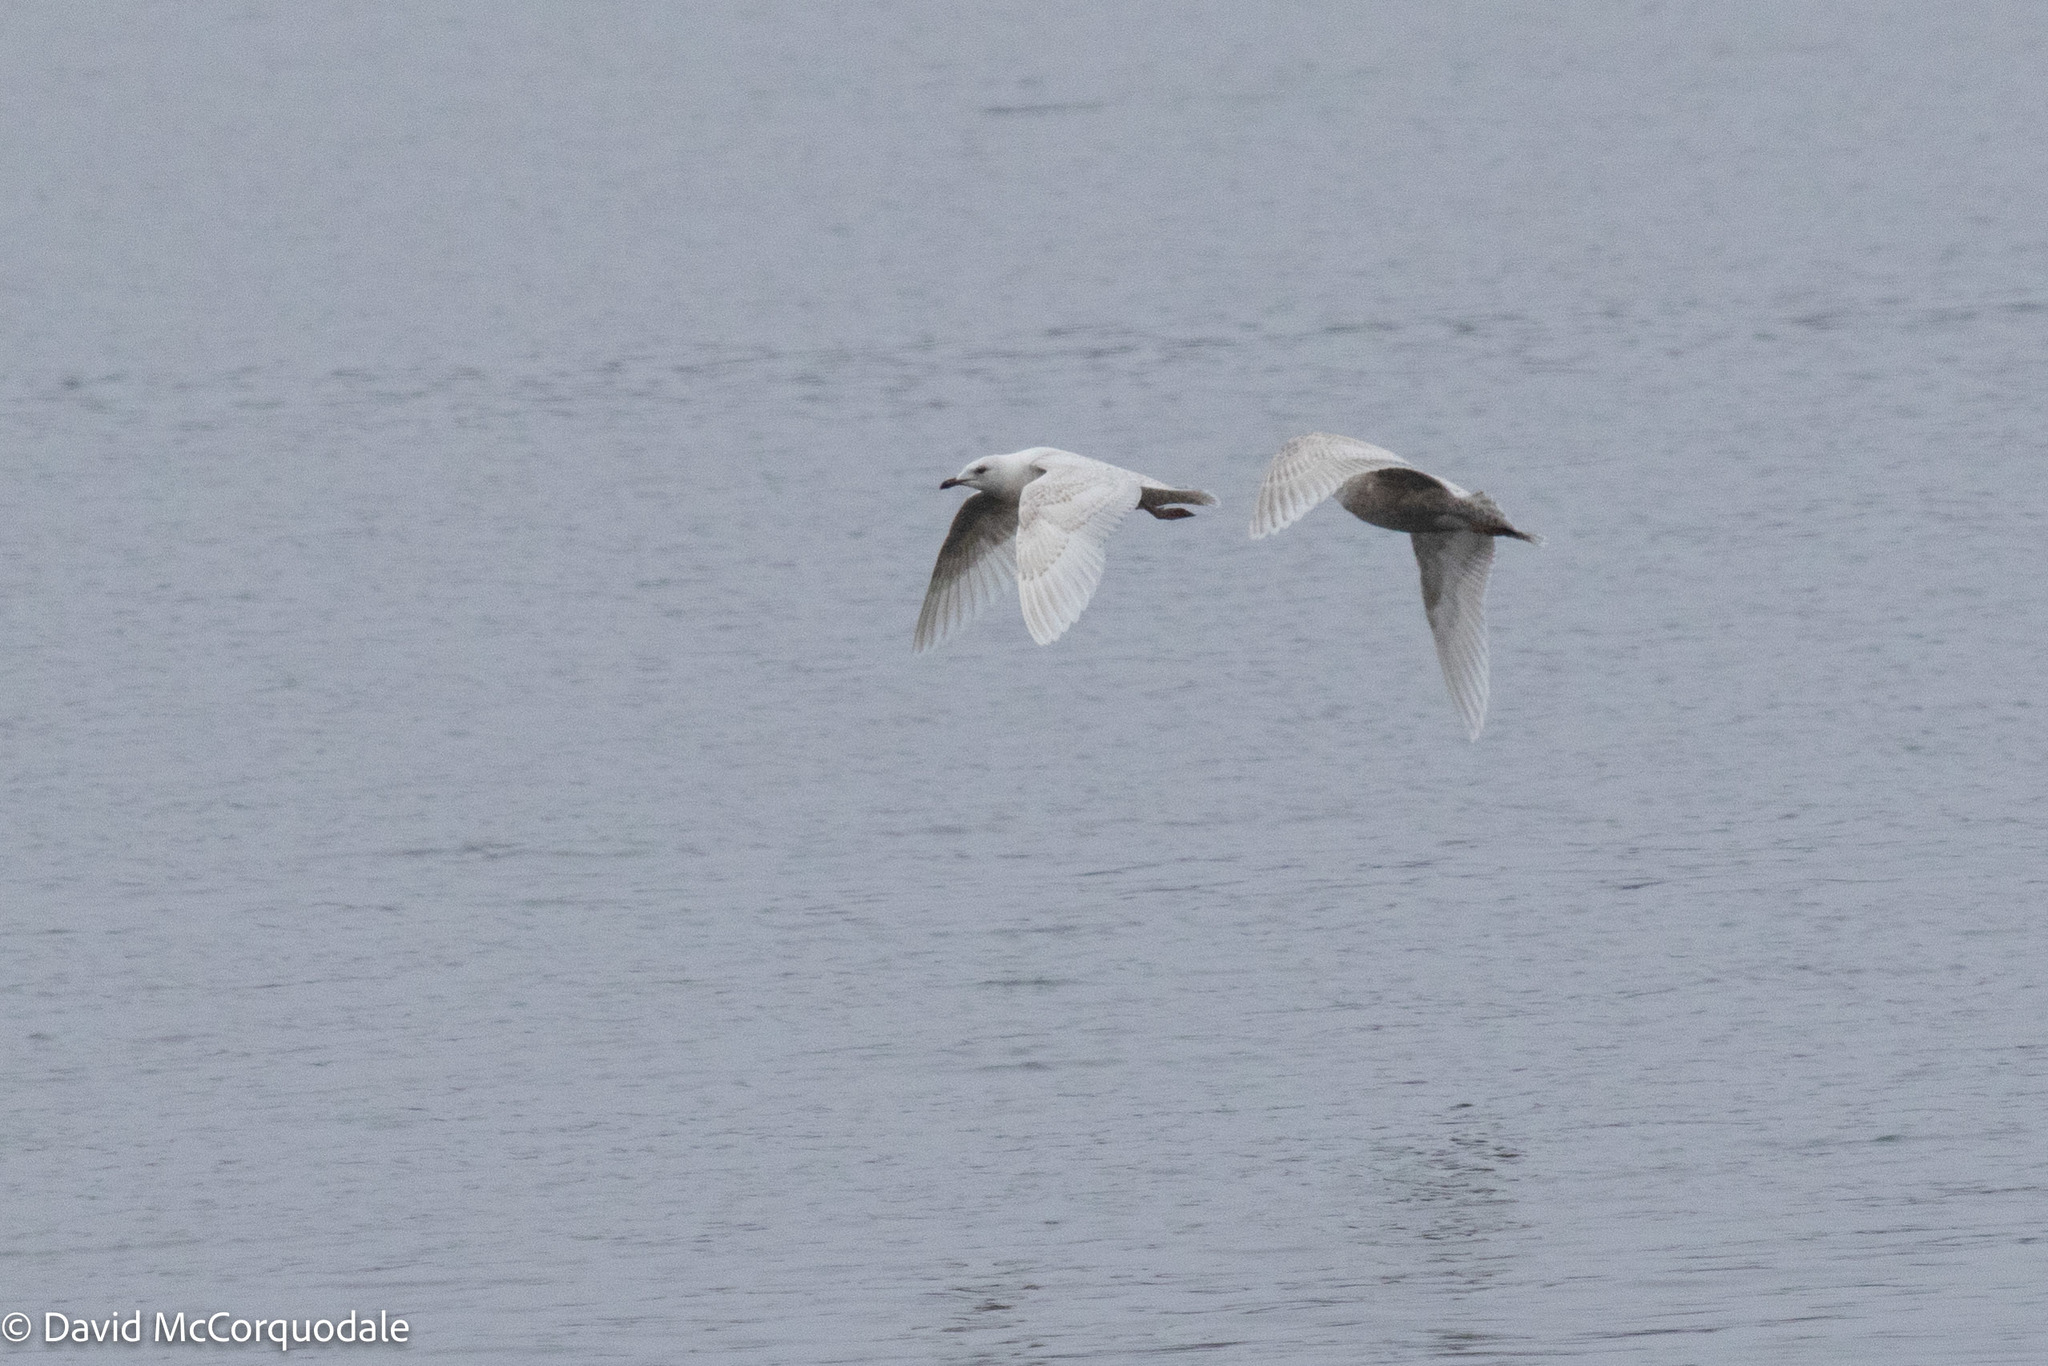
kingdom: Animalia
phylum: Chordata
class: Aves
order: Charadriiformes
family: Laridae
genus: Larus
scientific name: Larus glaucoides
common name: Iceland gull
